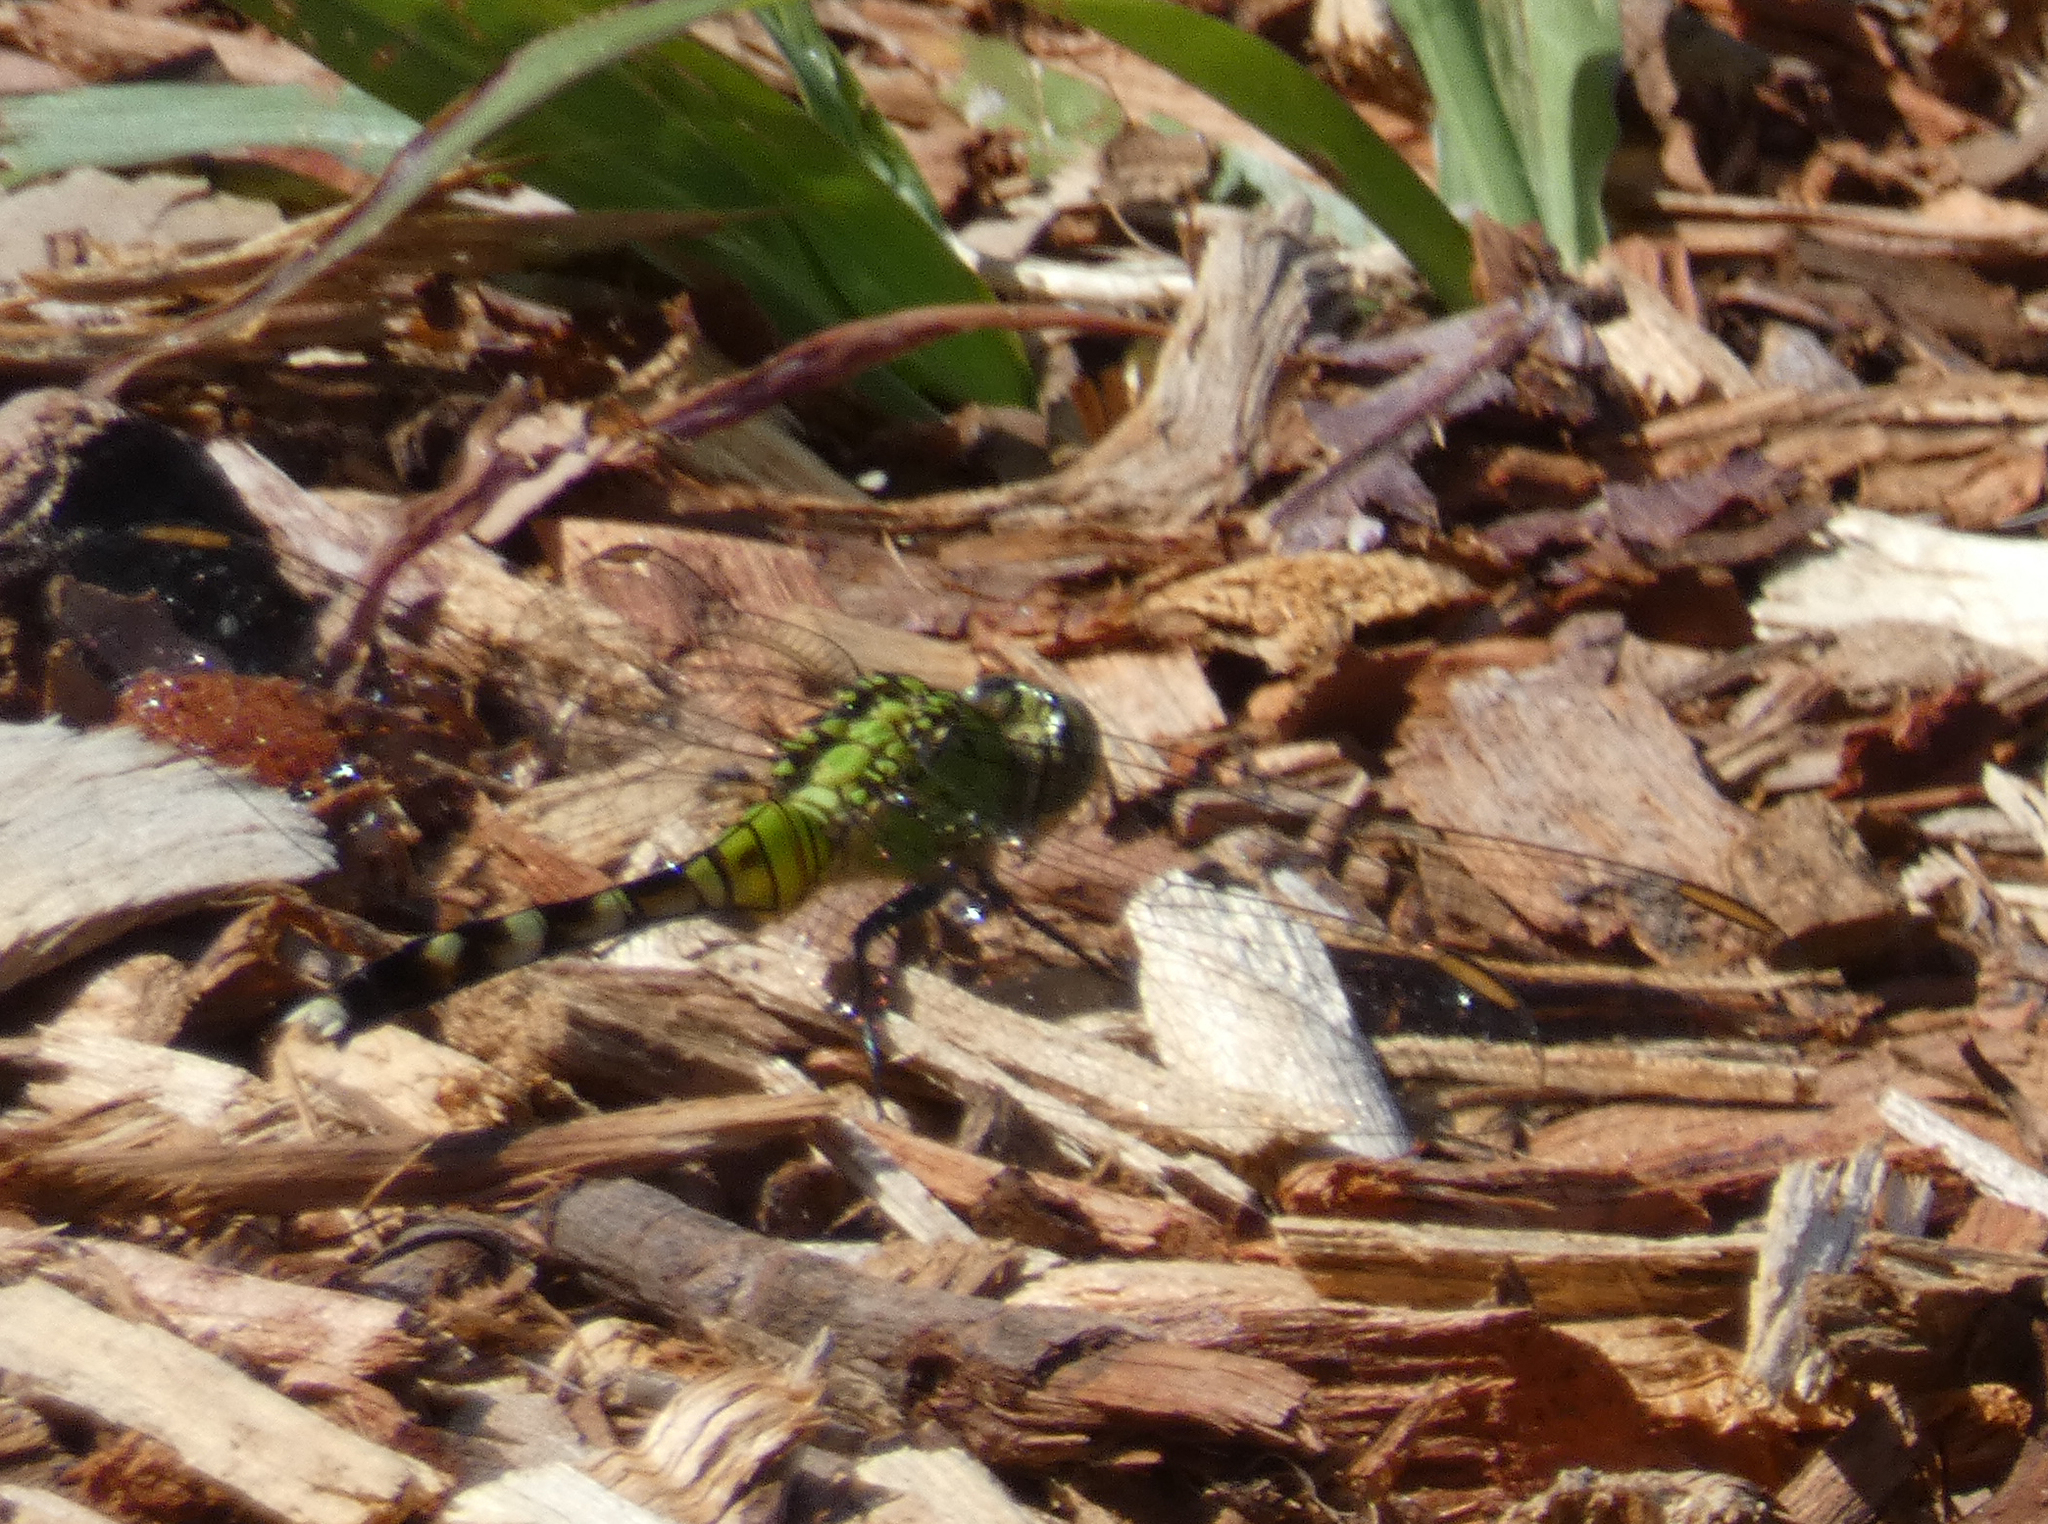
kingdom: Animalia
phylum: Arthropoda
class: Insecta
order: Odonata
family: Libellulidae
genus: Erythemis
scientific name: Erythemis simplicicollis
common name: Eastern pondhawk
